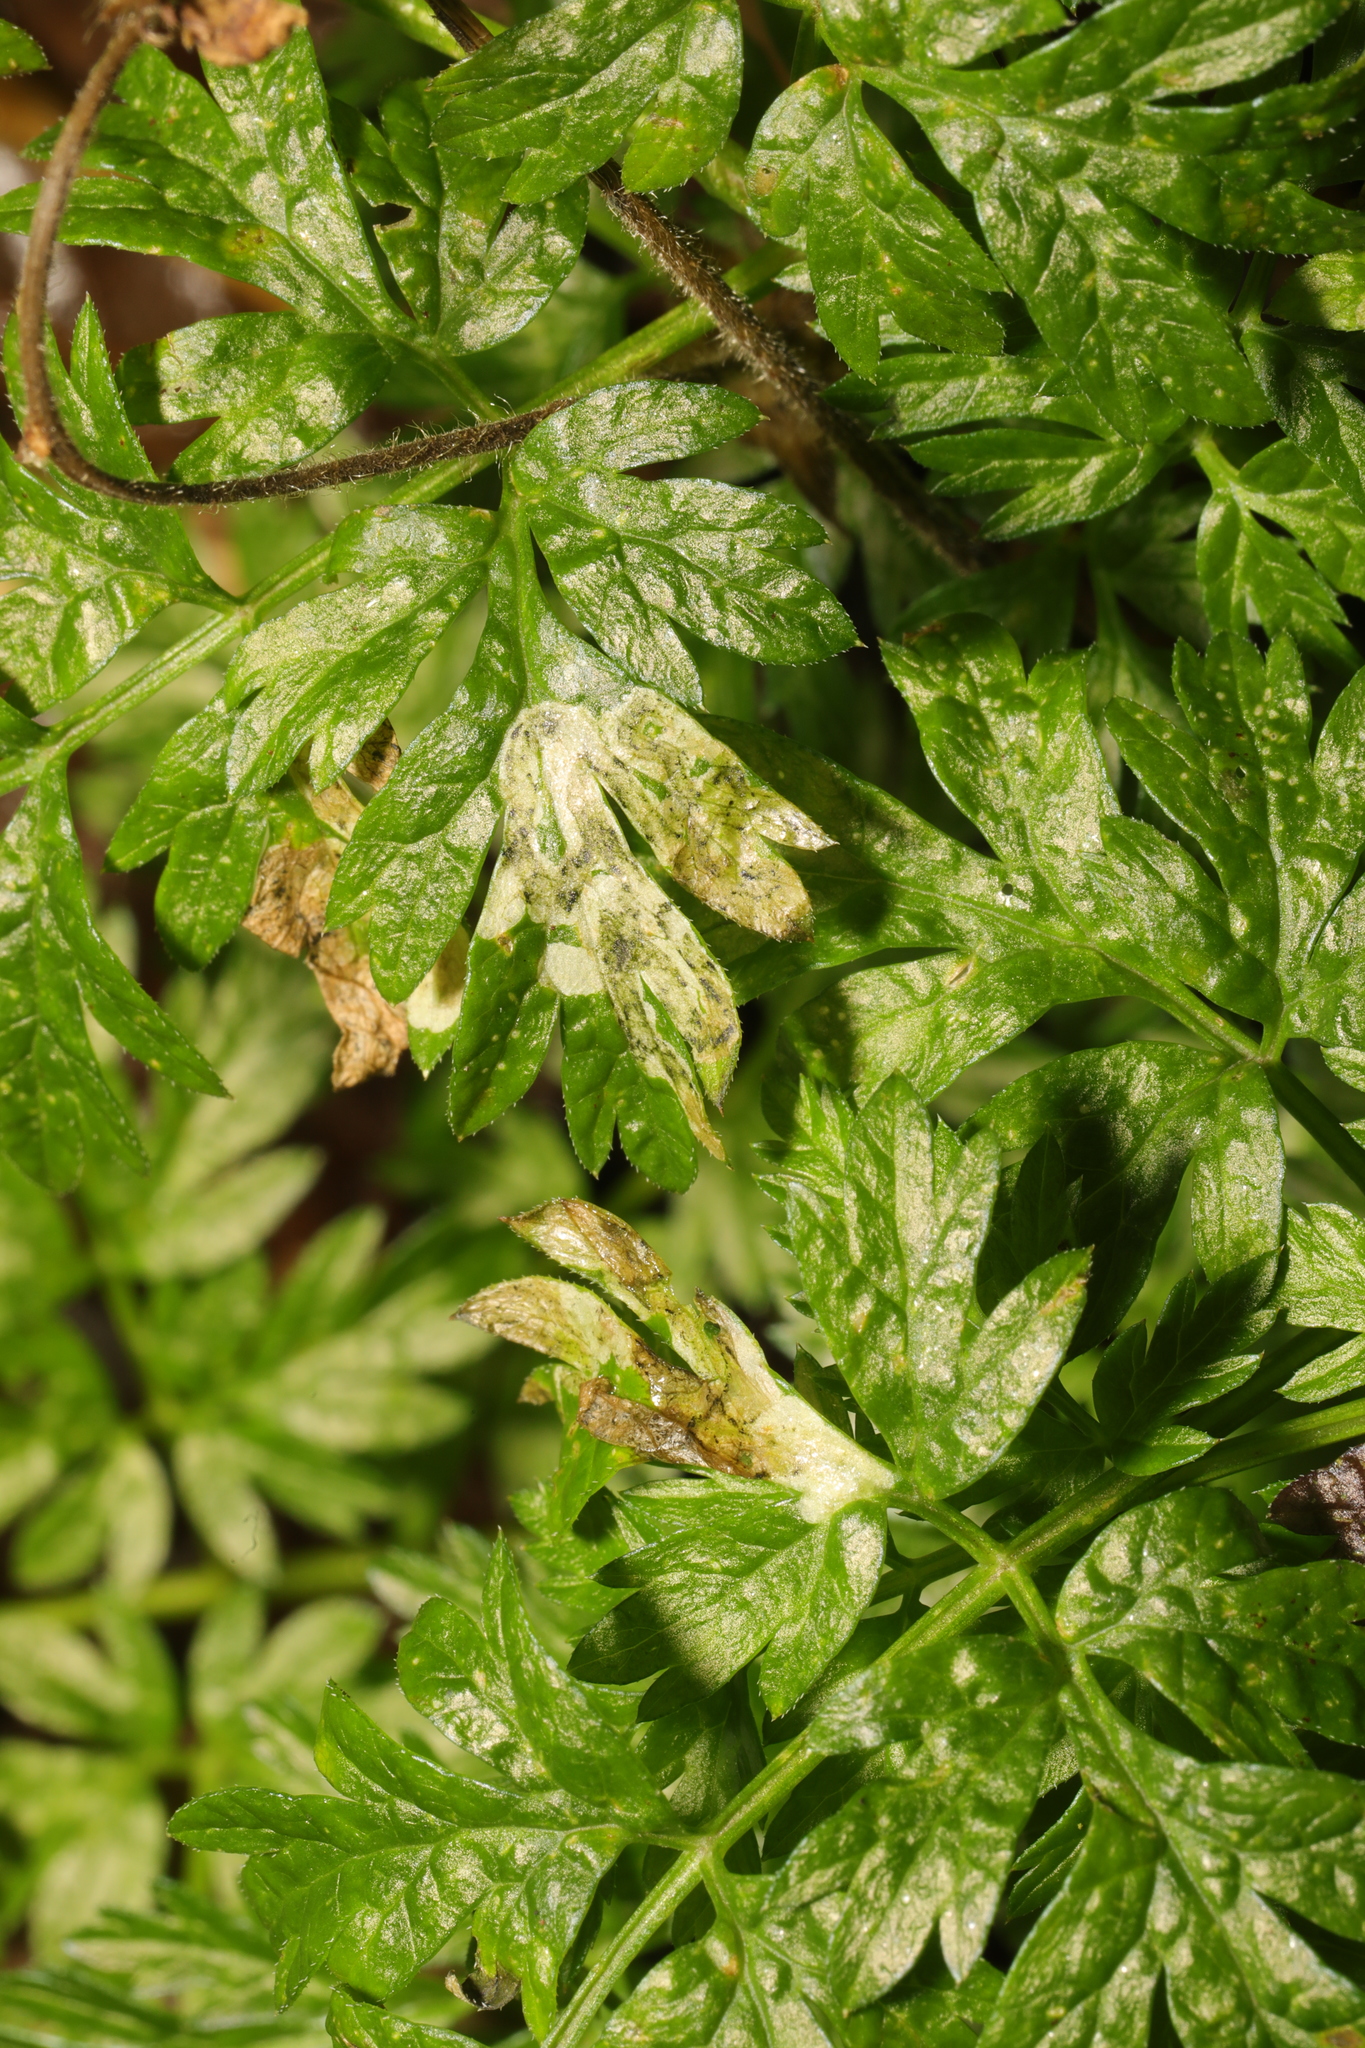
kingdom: Animalia
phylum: Arthropoda
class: Insecta
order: Diptera
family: Agromyzidae
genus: Phytomyza
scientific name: Phytomyza chaerophylli
